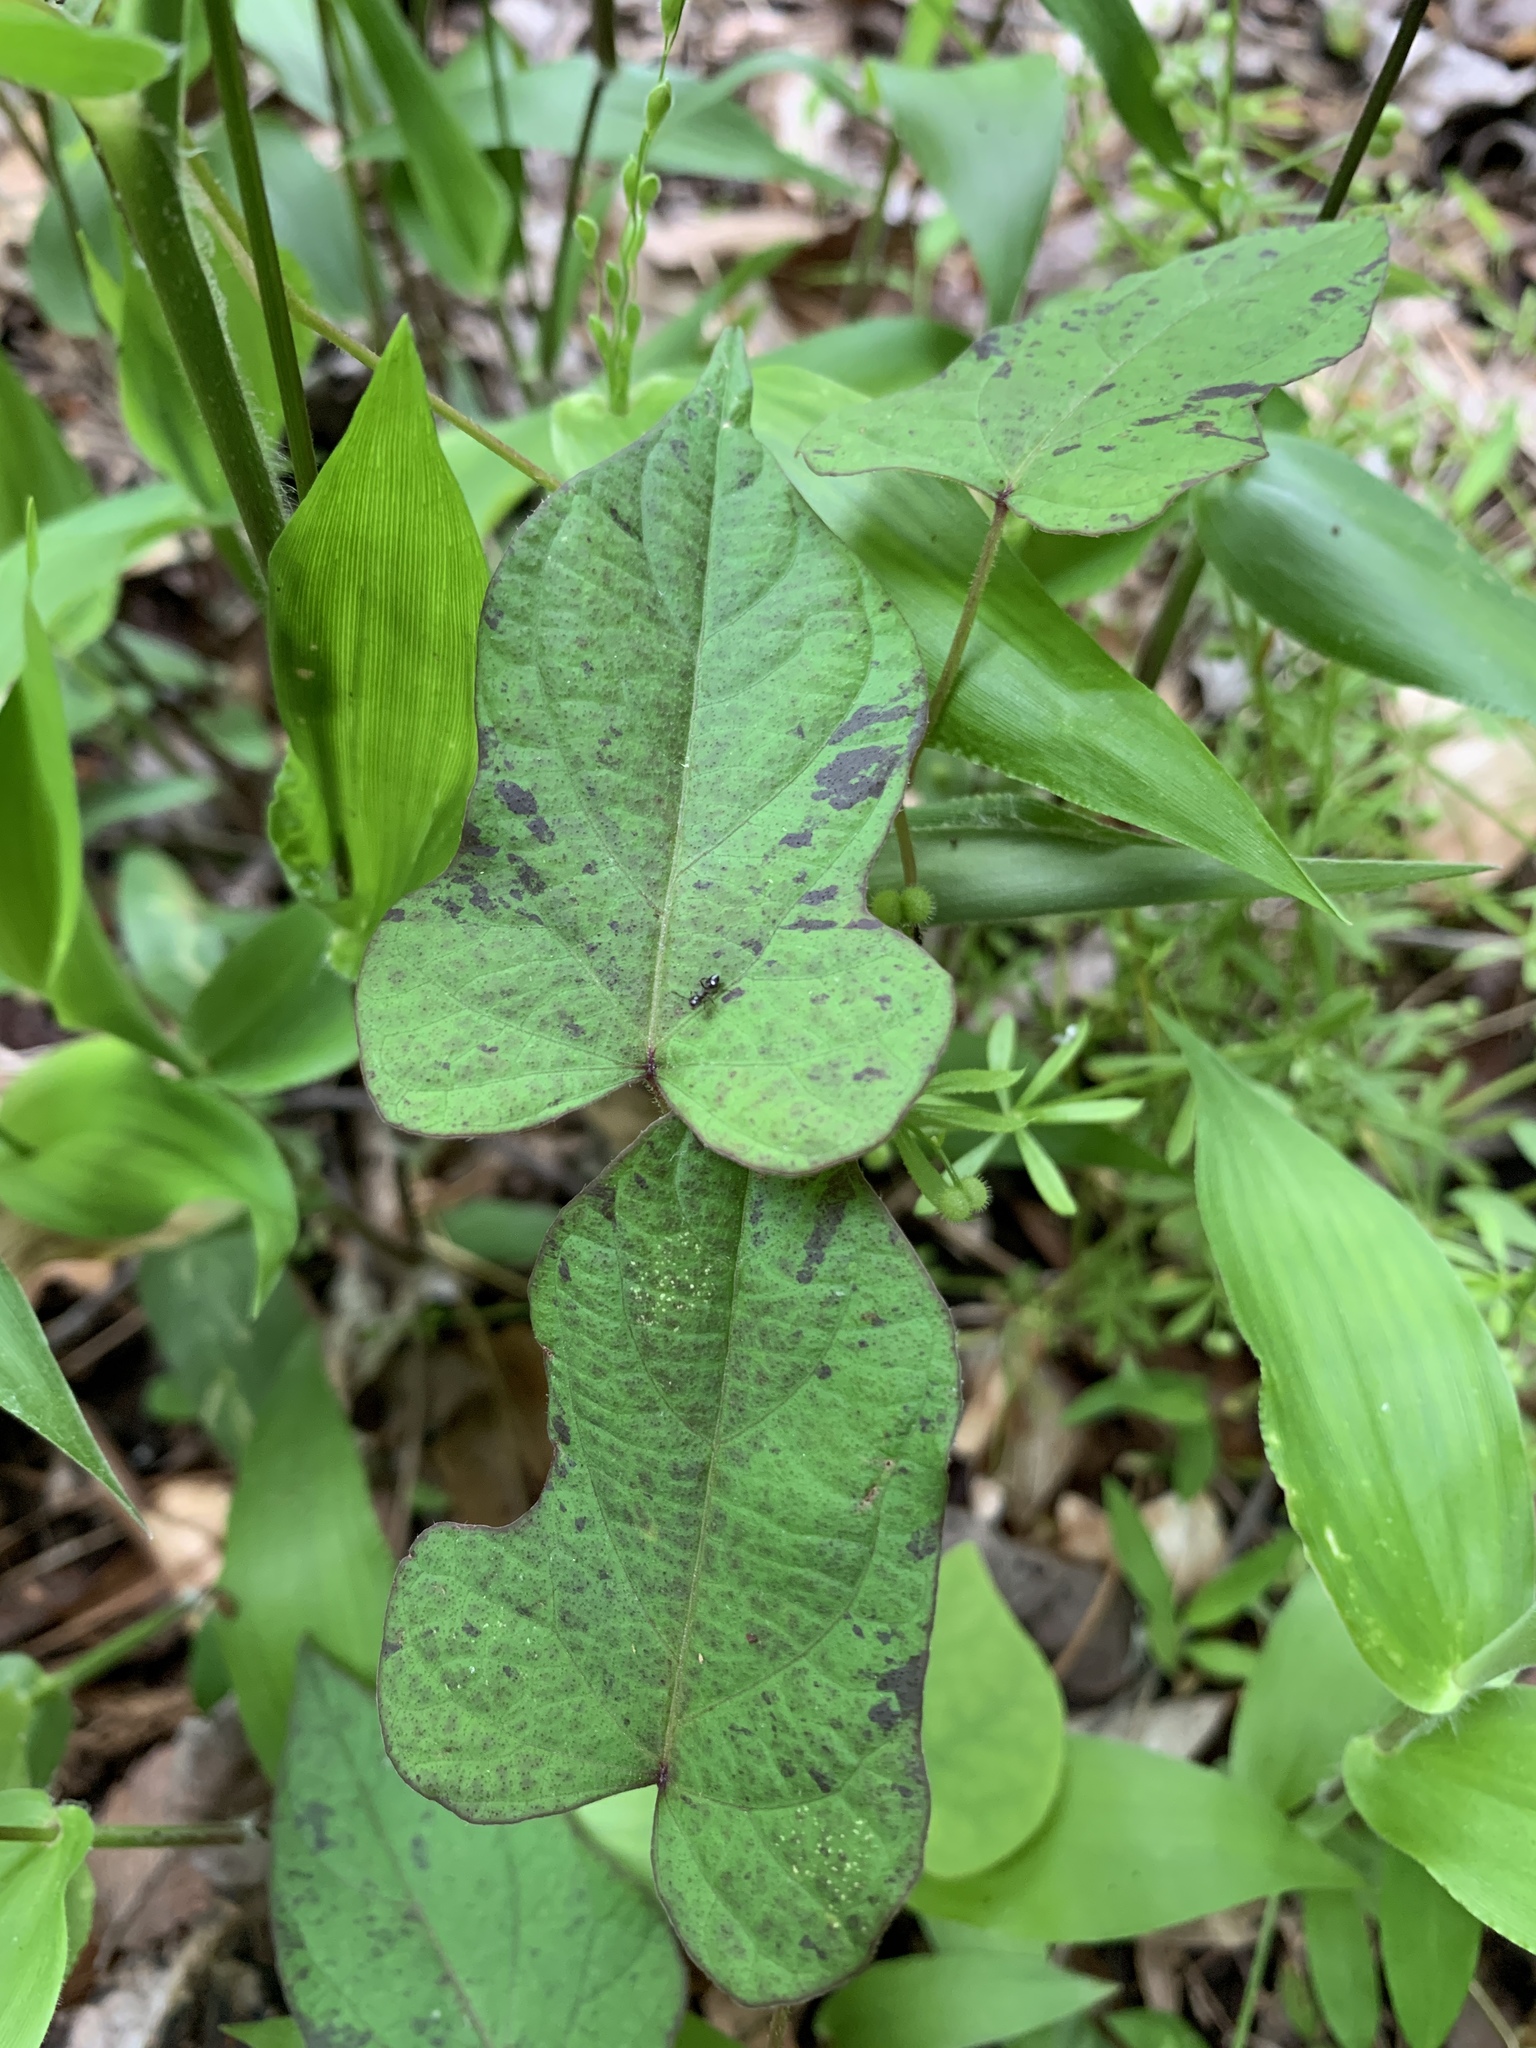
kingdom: Plantae
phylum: Tracheophyta
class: Magnoliopsida
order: Solanales
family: Convolvulaceae
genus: Ipomoea
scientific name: Ipomoea pandurata
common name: Man-of-the-earth
